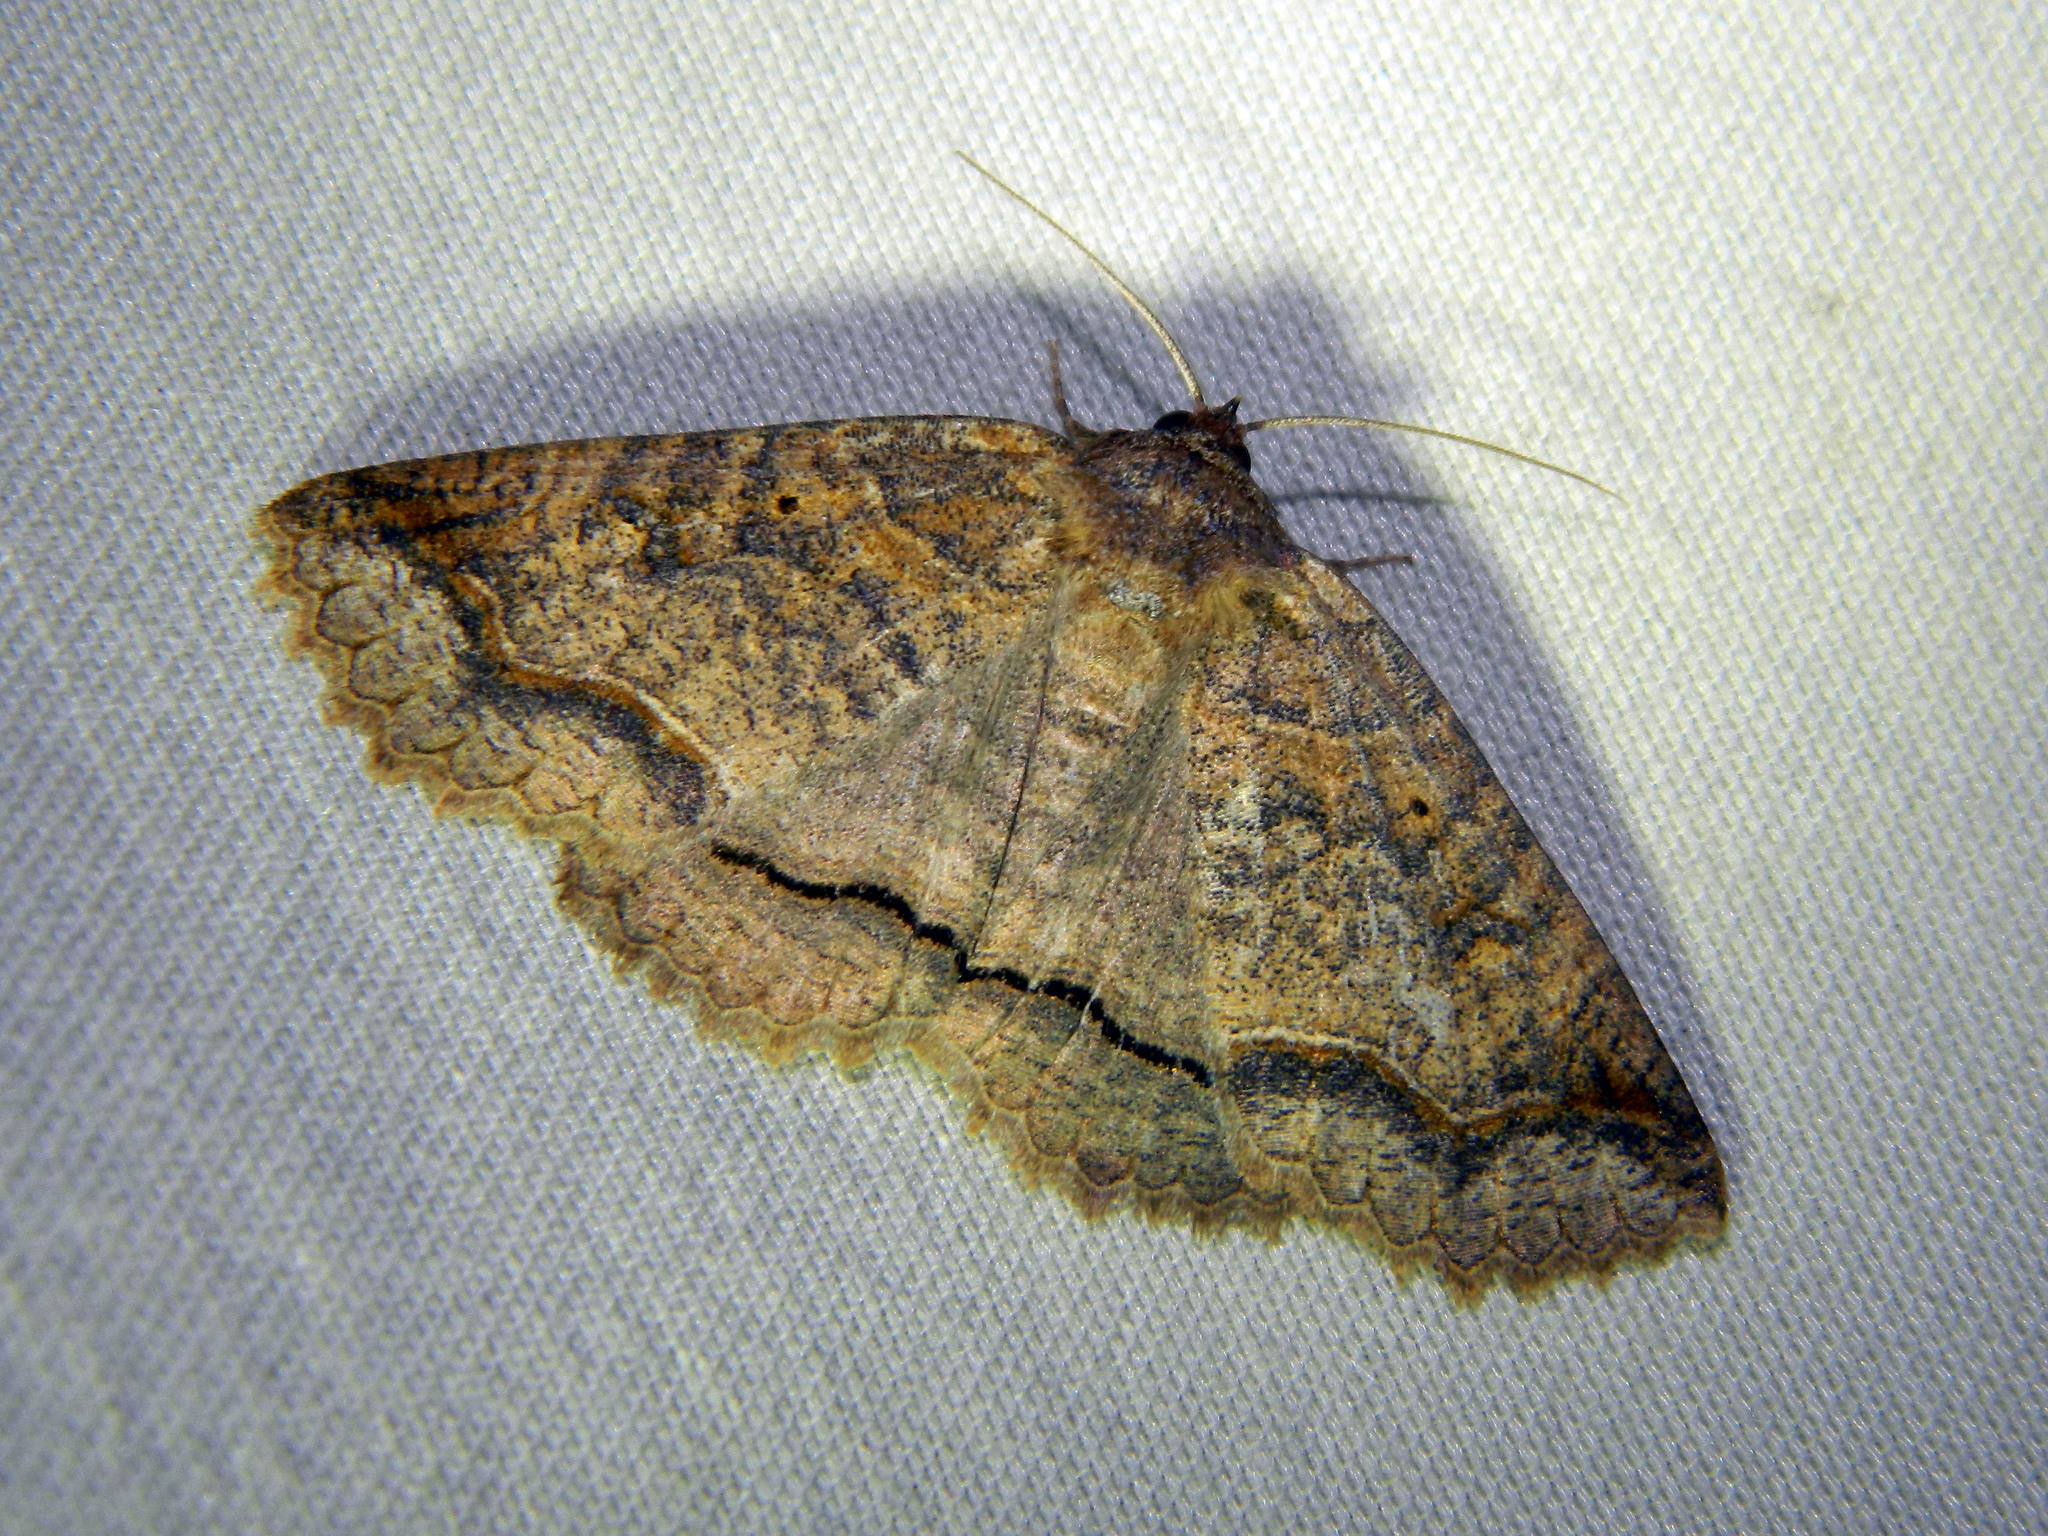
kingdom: Animalia
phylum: Arthropoda
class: Insecta
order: Lepidoptera
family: Erebidae
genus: Zale
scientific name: Zale unilineata
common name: One-lined zale moth
